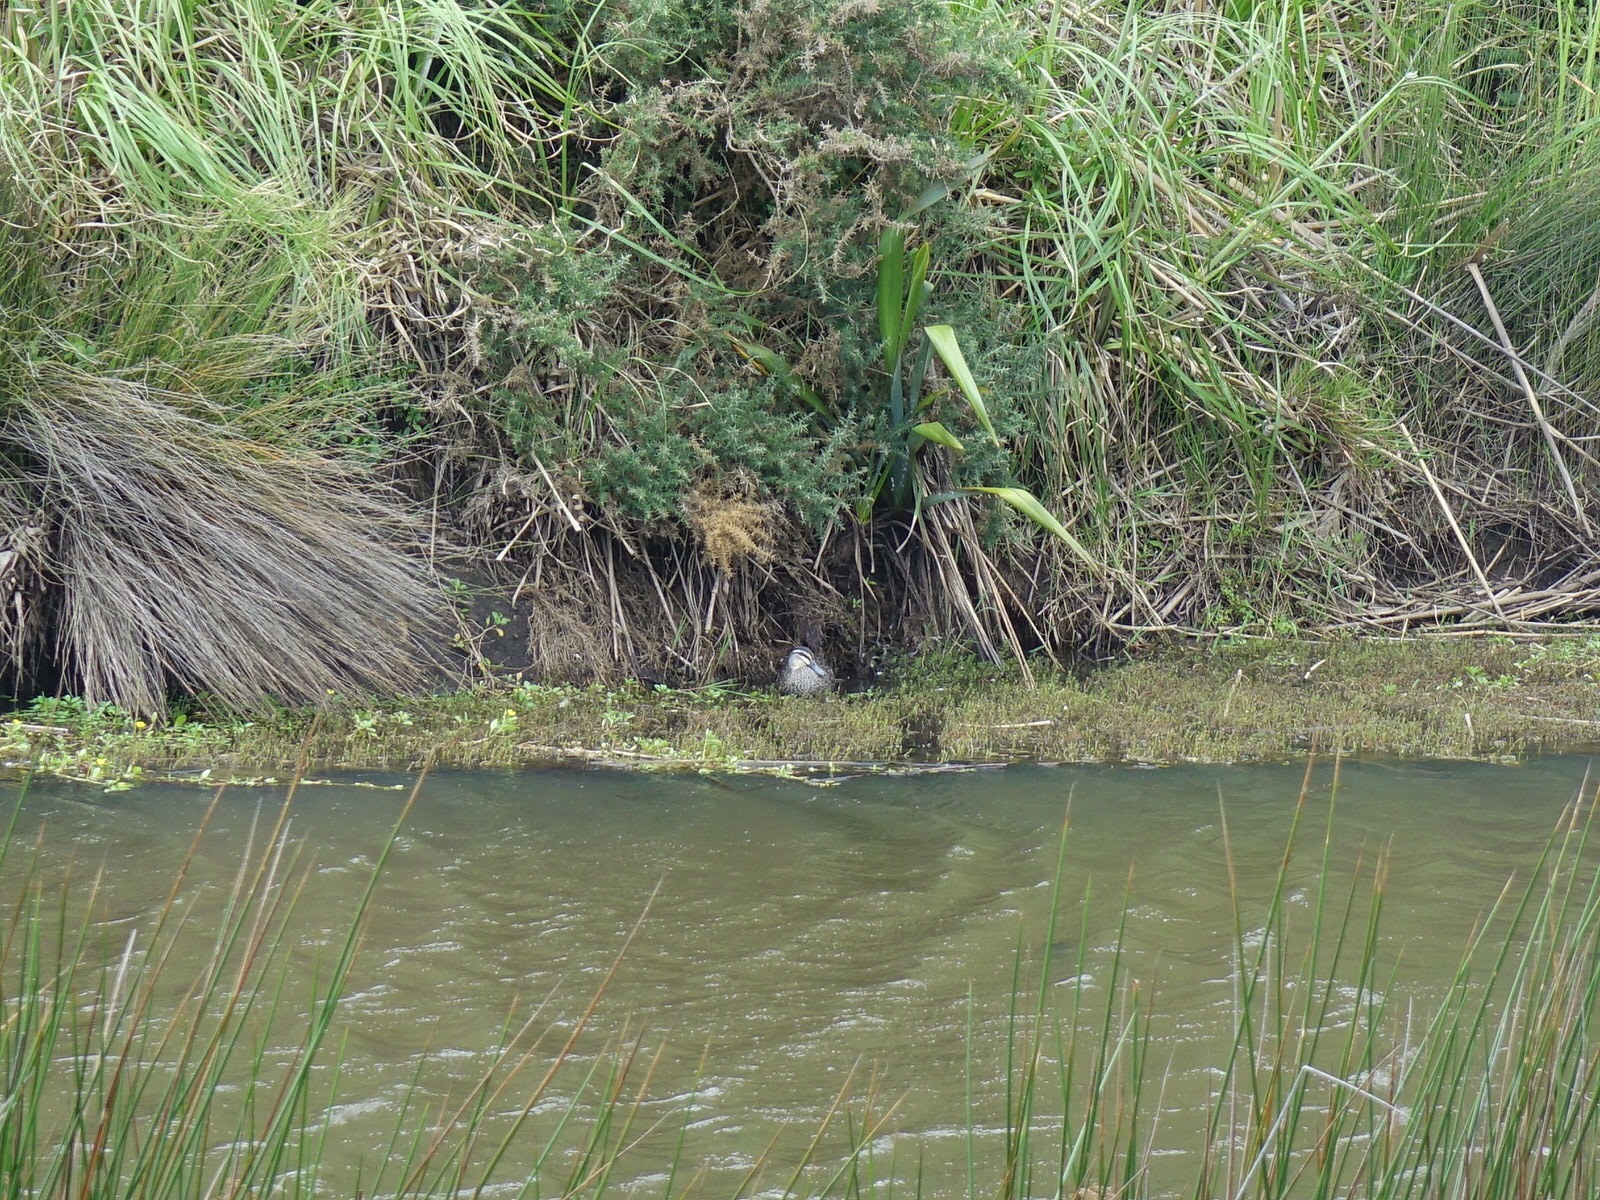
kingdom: Animalia
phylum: Chordata
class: Aves
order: Anseriformes
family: Anatidae
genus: Anas
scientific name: Anas superciliosa
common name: Pacific black duck
